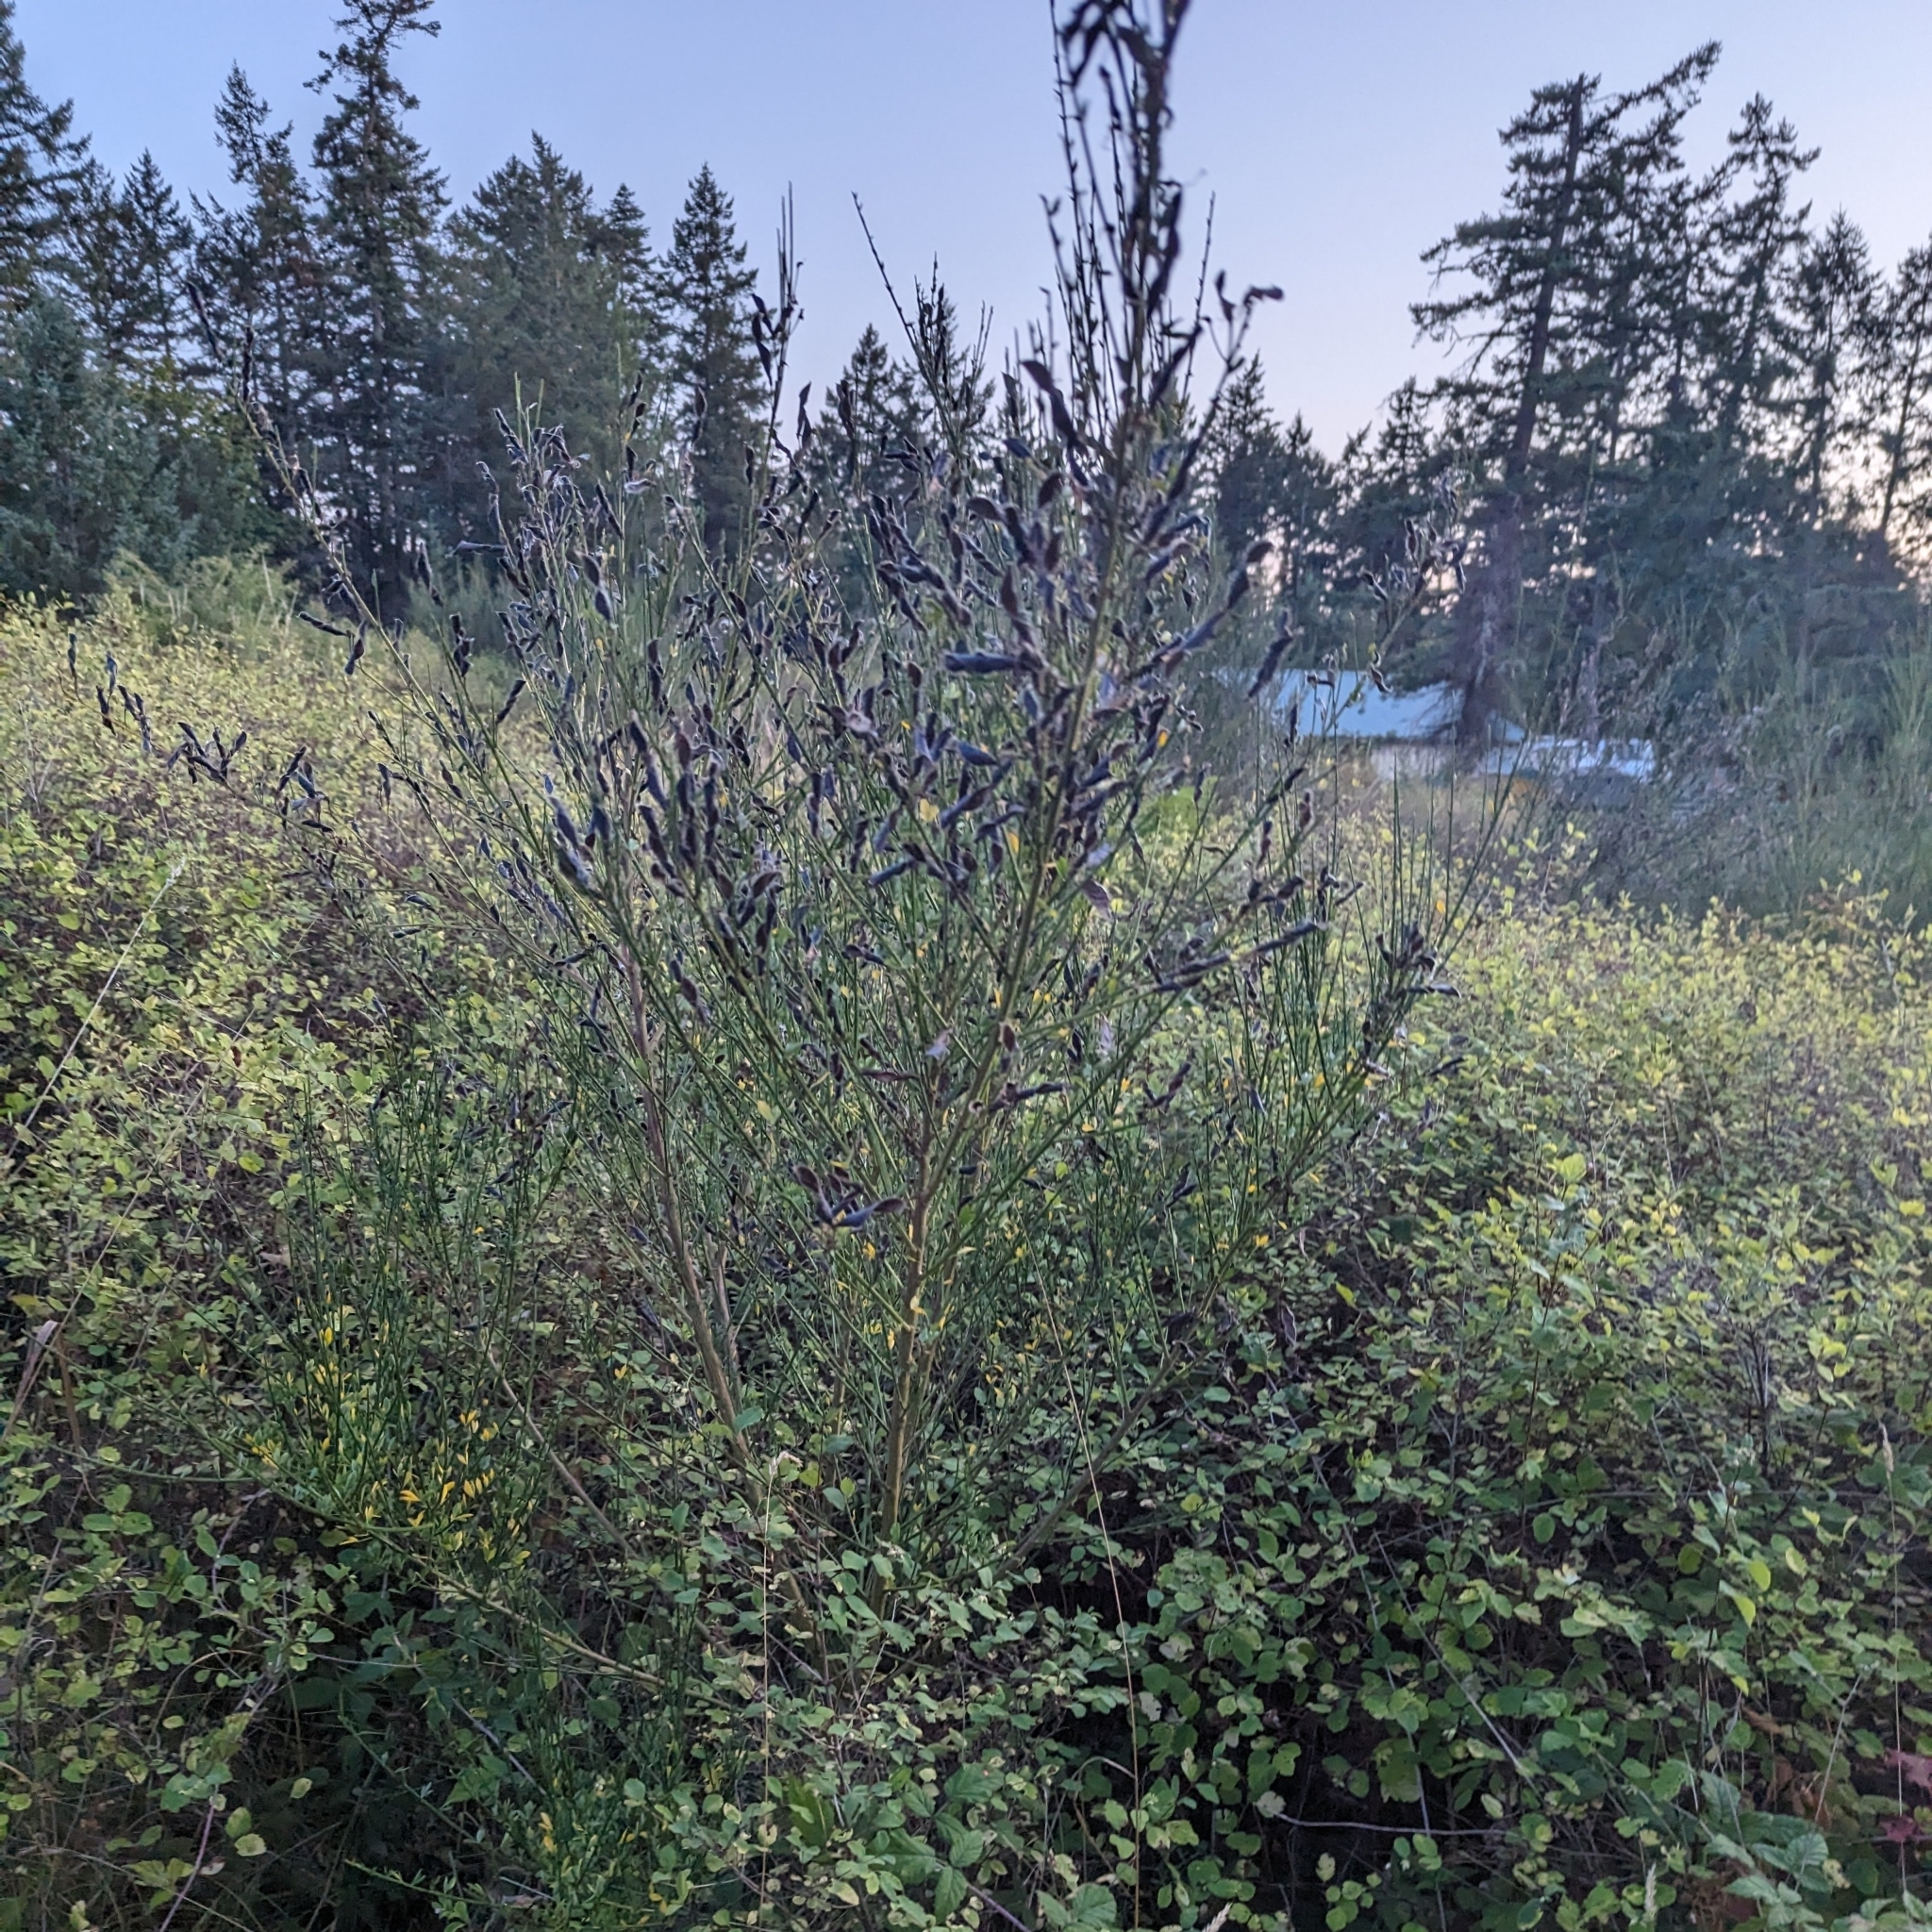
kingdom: Plantae
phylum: Tracheophyta
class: Magnoliopsida
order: Fabales
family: Fabaceae
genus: Cytisus
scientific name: Cytisus scoparius
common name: Scotch broom
